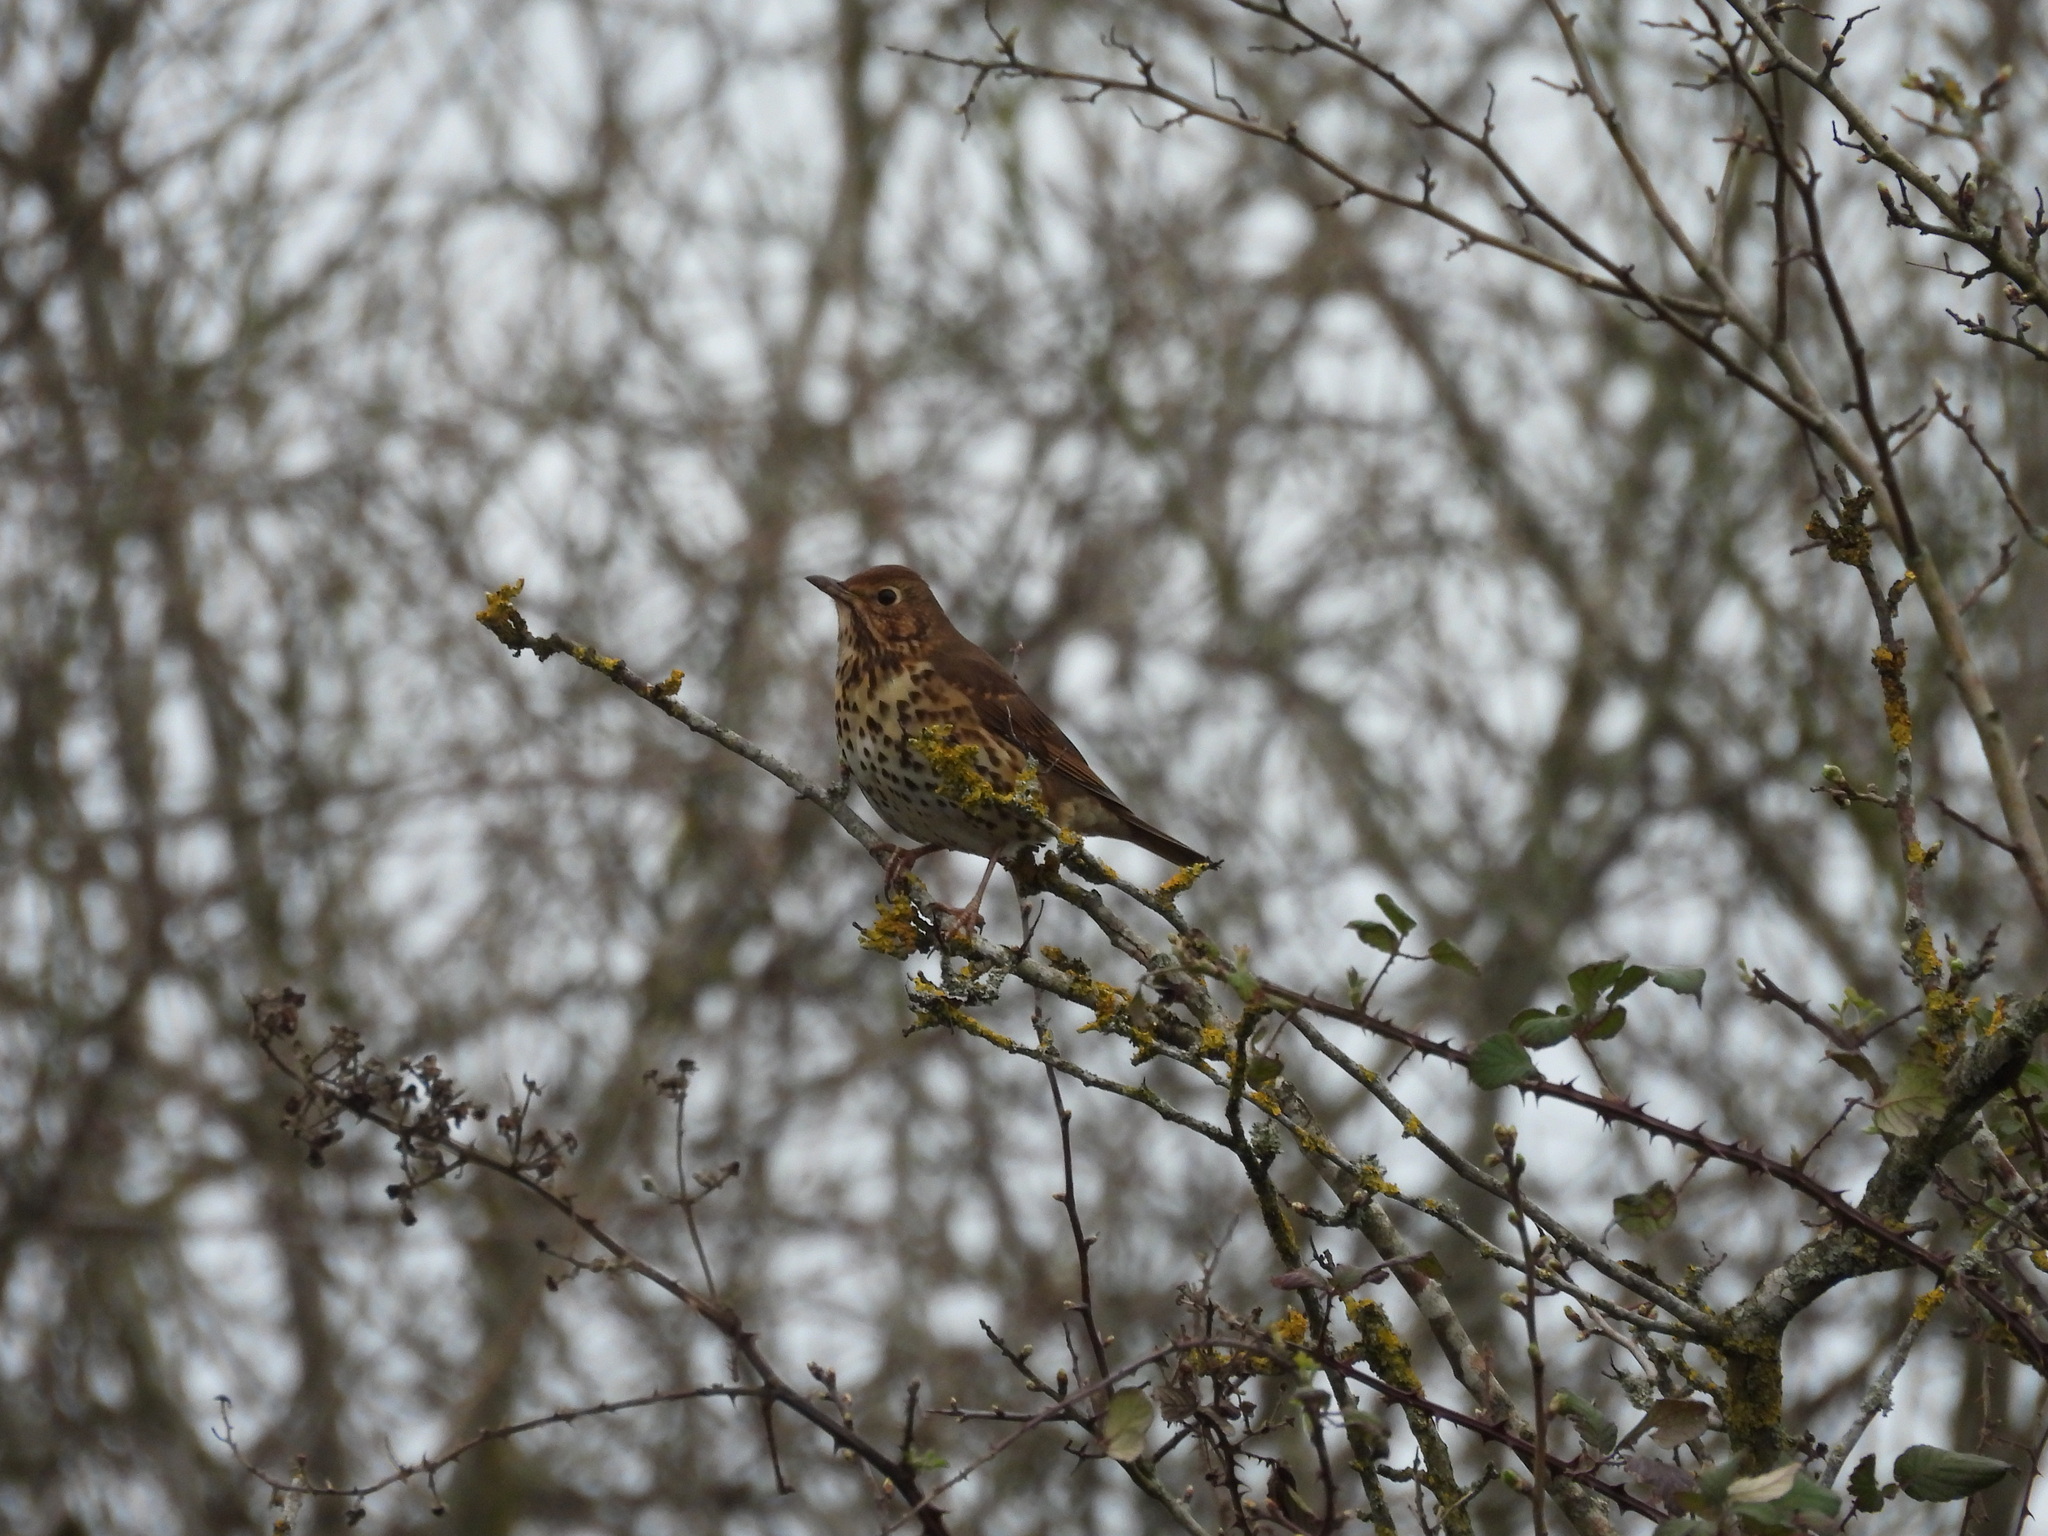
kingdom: Animalia
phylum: Chordata
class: Aves
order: Passeriformes
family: Turdidae
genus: Turdus
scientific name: Turdus philomelos
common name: Song thrush
